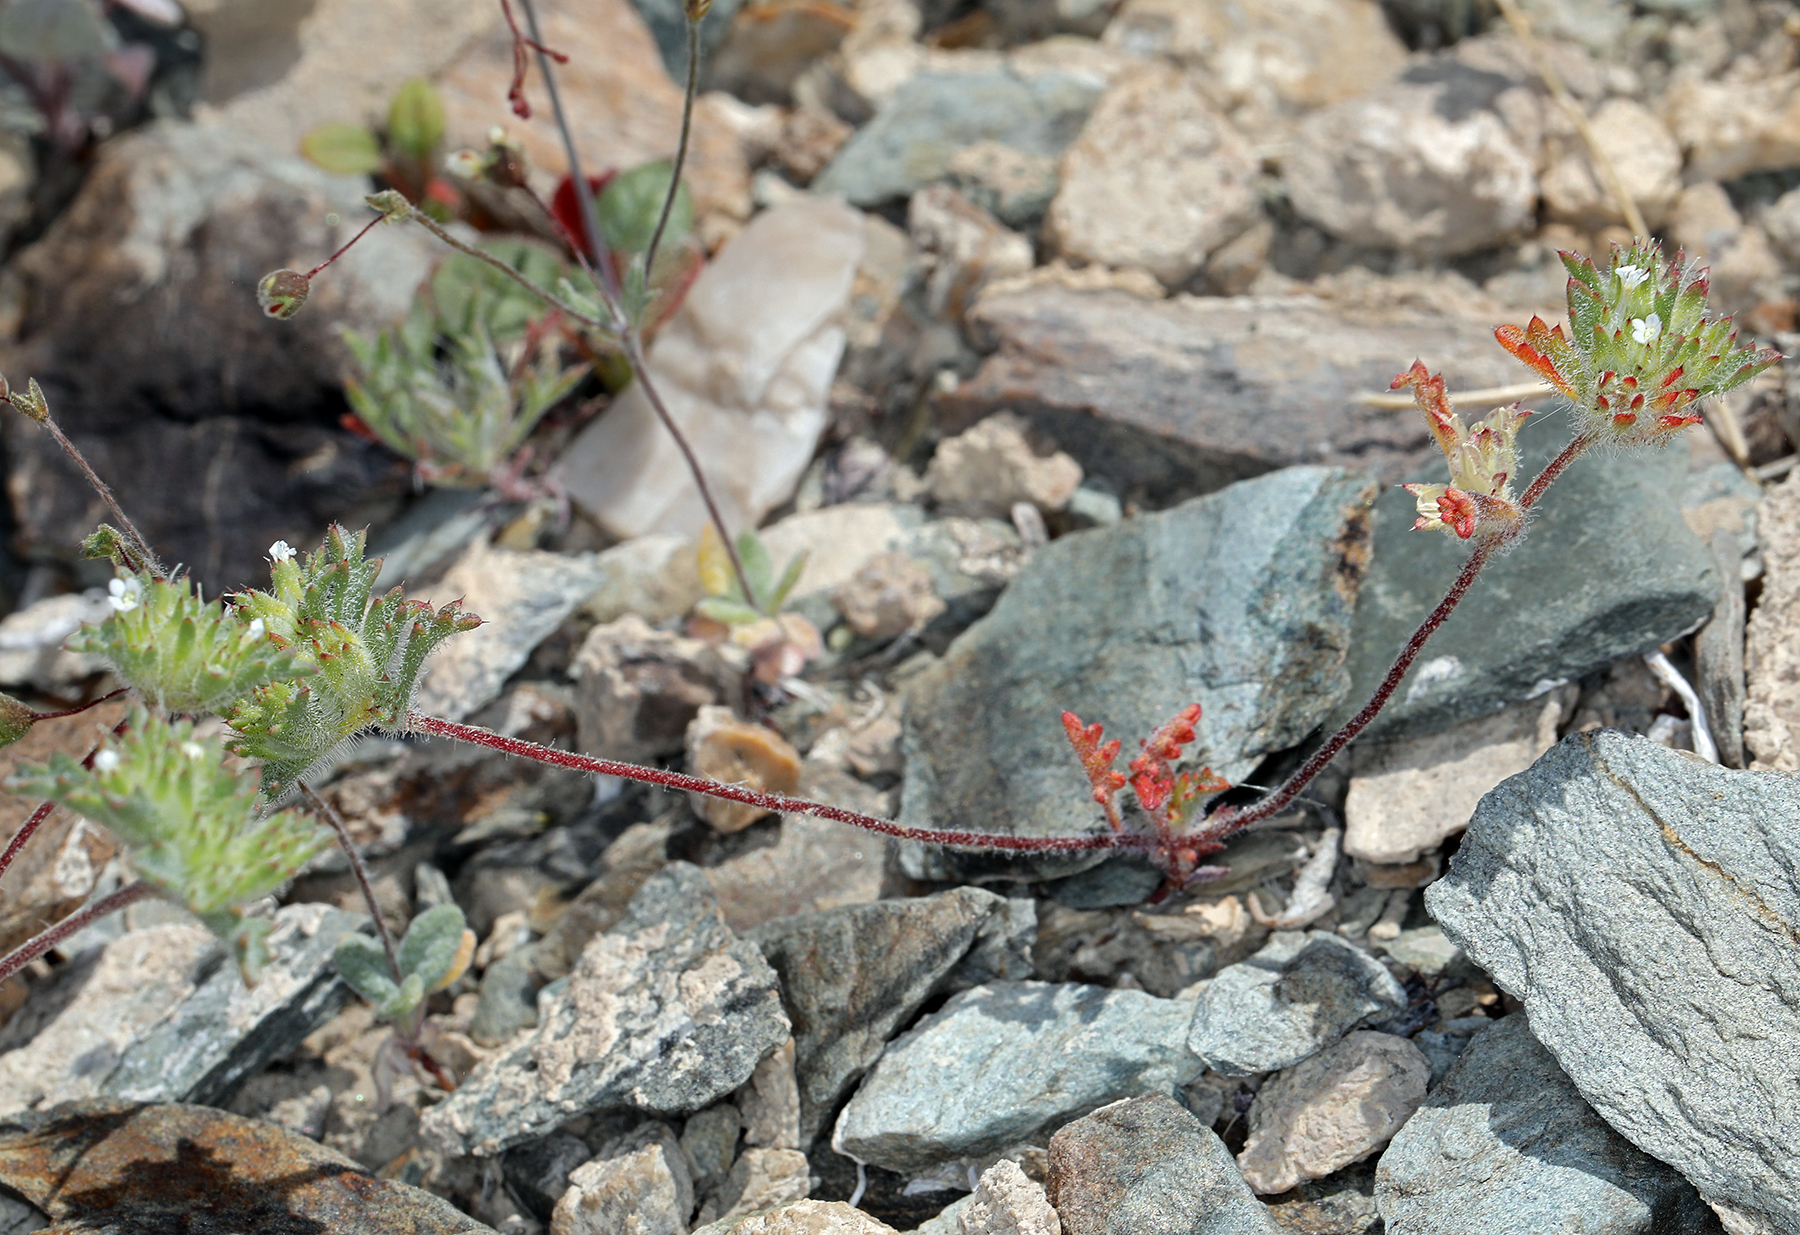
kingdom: Plantae
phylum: Tracheophyta
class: Magnoliopsida
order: Ericales
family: Polemoniaceae
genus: Ipomopsis
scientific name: Ipomopsis polycladon
